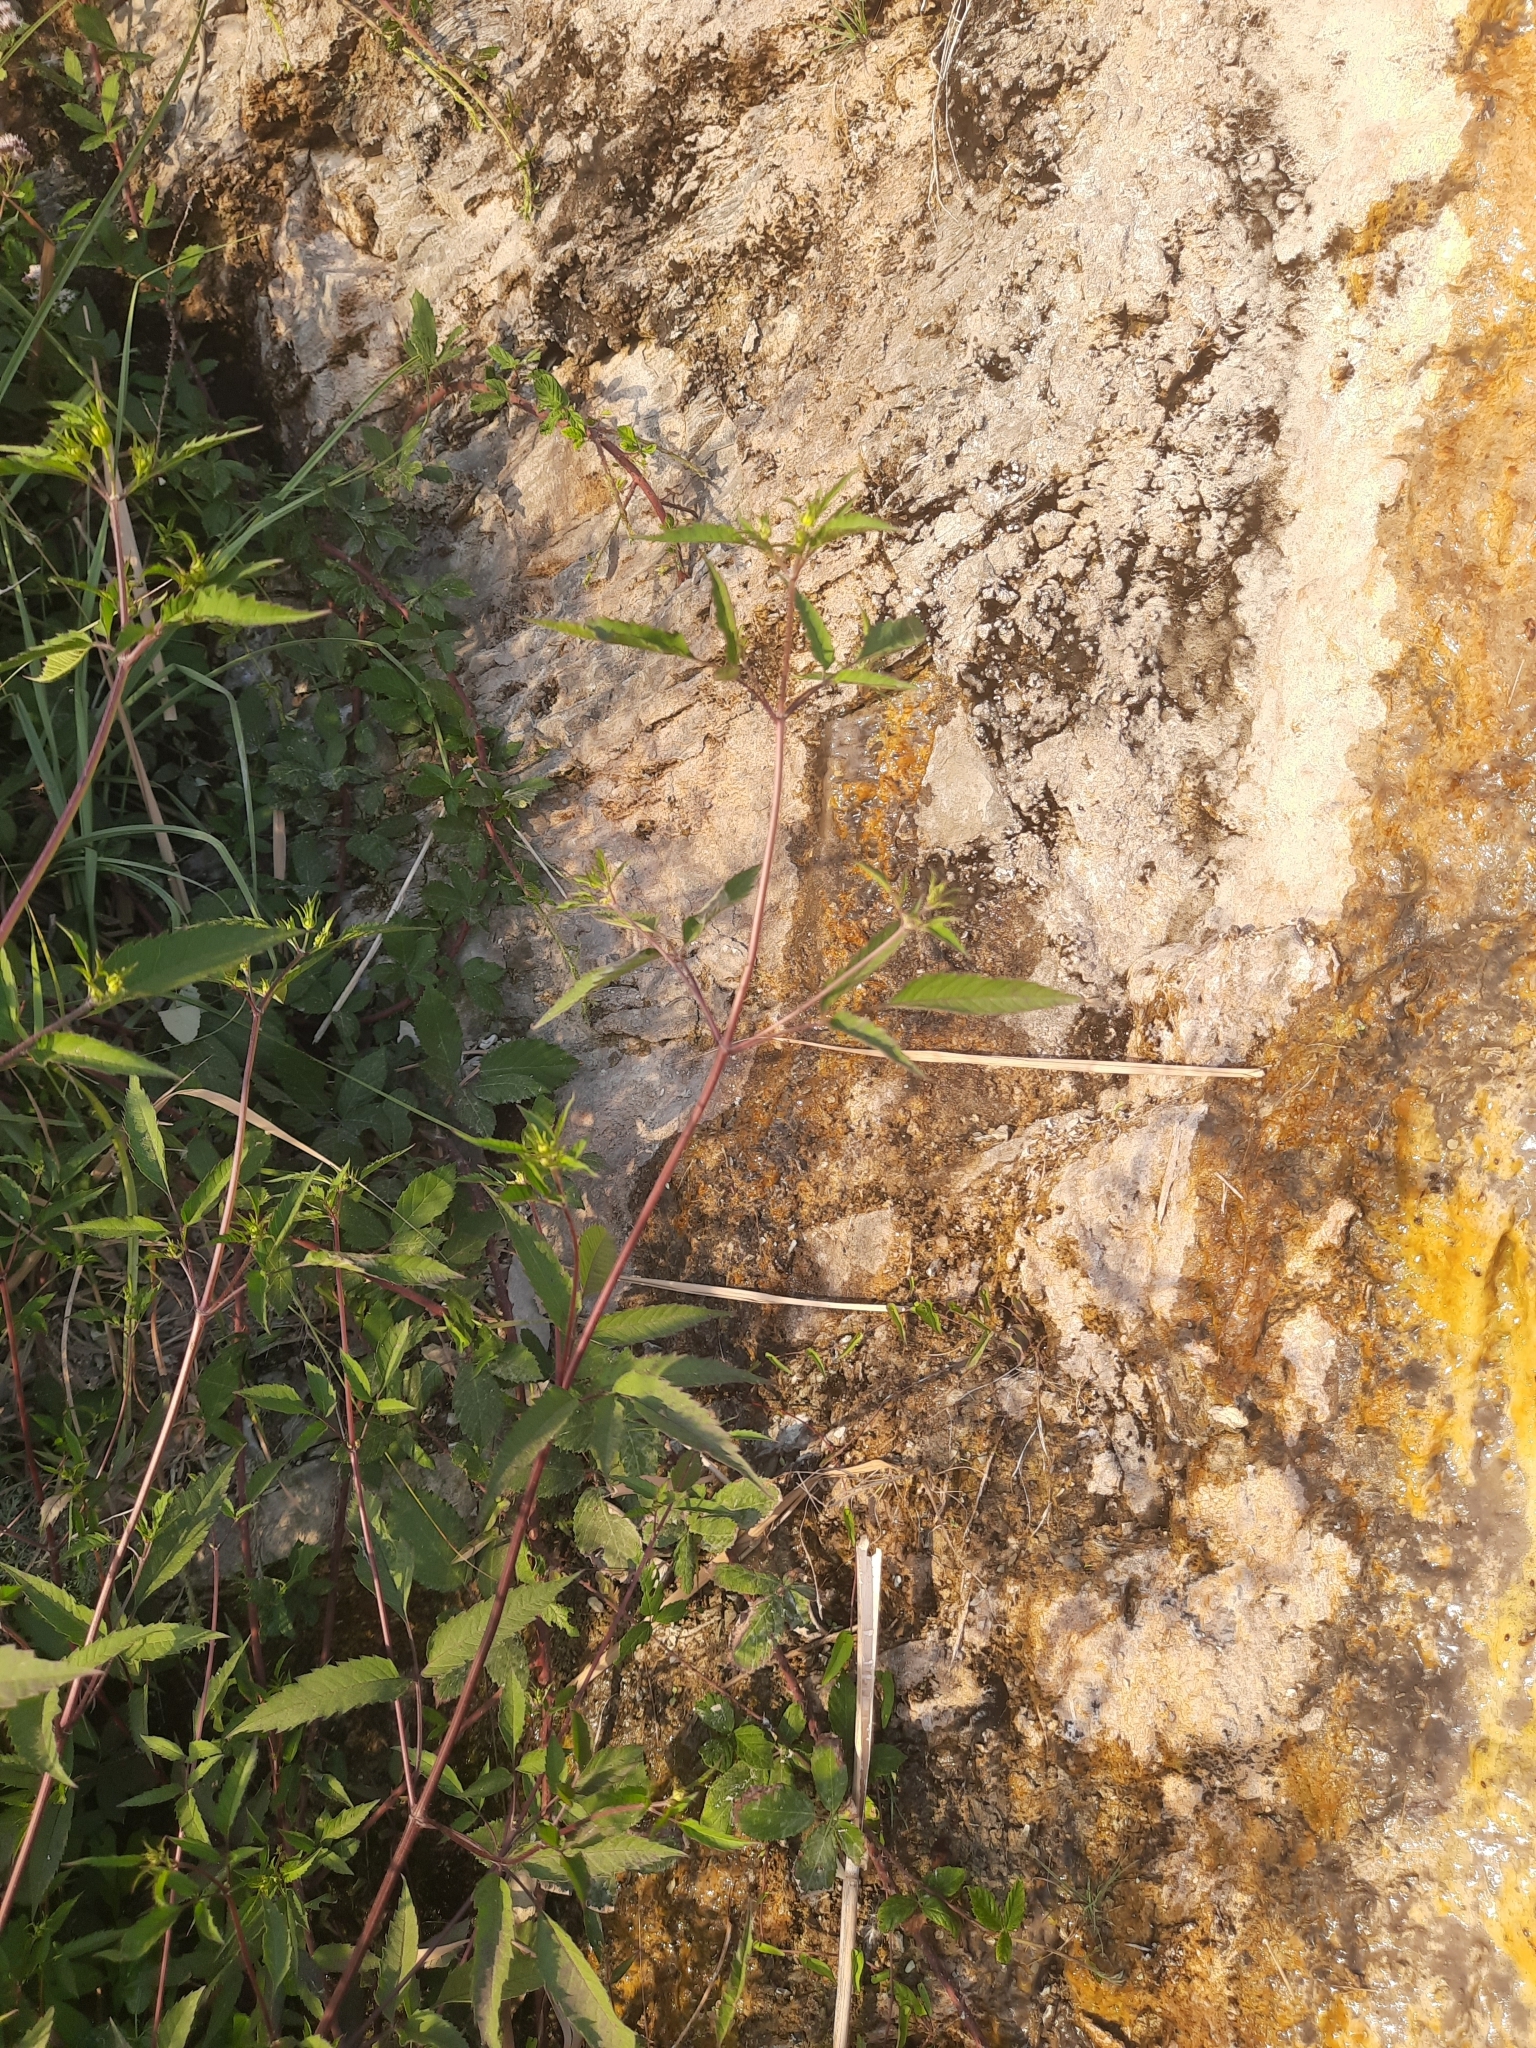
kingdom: Plantae
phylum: Tracheophyta
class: Magnoliopsida
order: Asterales
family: Asteraceae
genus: Bidens
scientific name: Bidens frondosa
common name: Beggarticks
